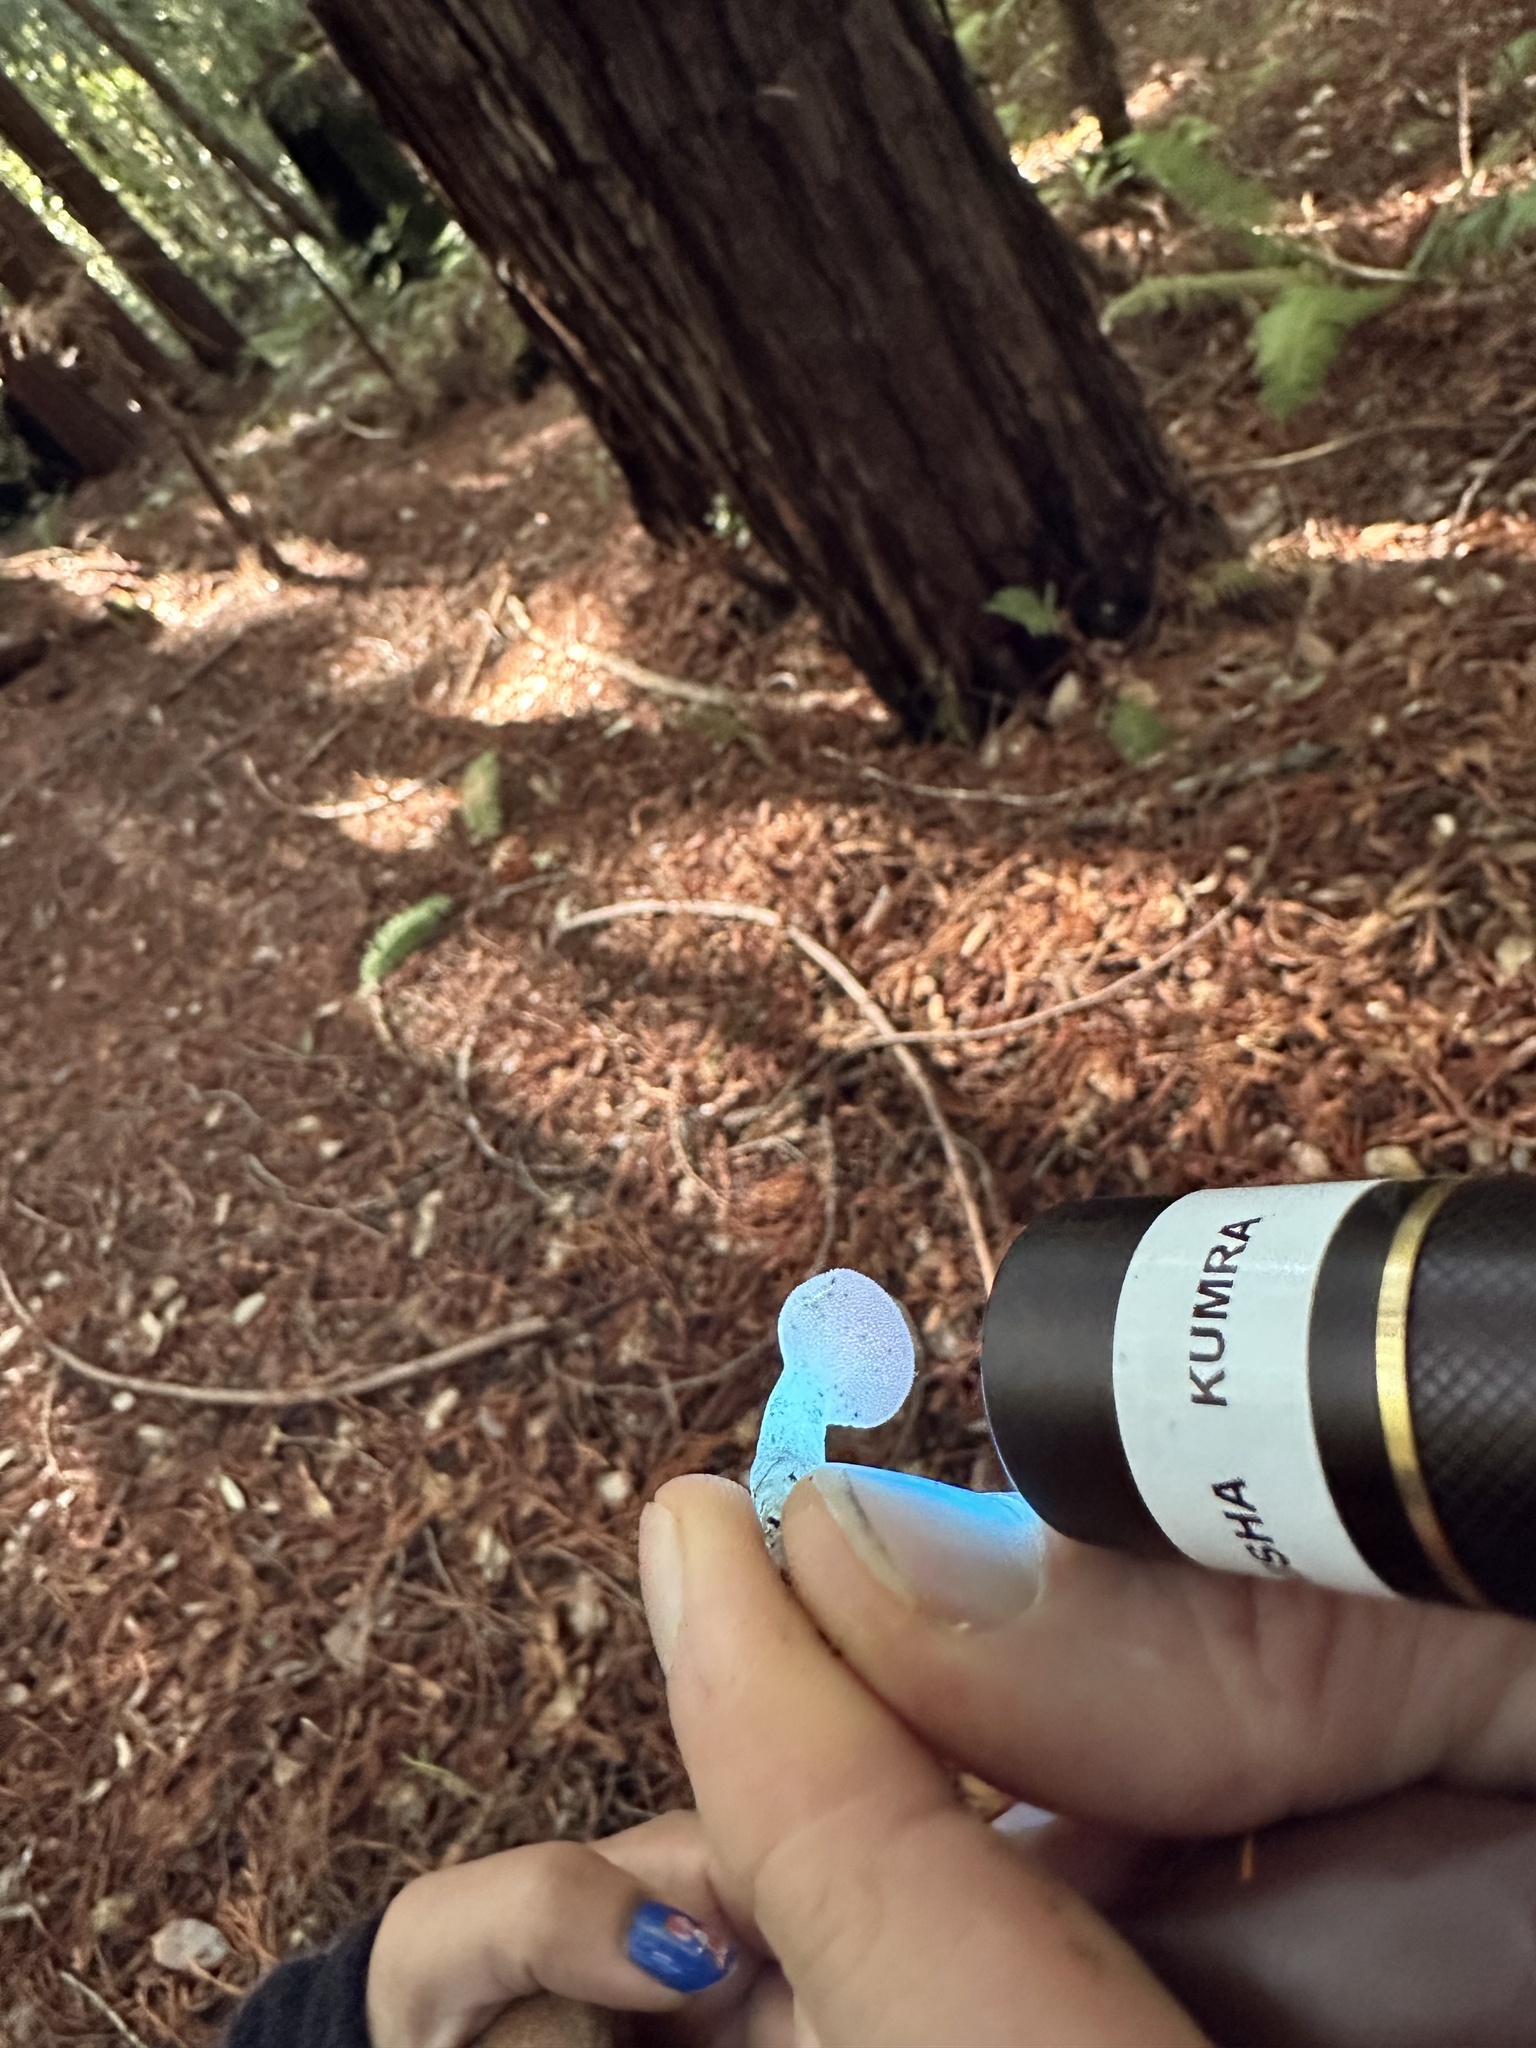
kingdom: Fungi
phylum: Basidiomycota
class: Agaricomycetes
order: Auriculariales
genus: Pseudohydnum
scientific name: Pseudohydnum gelatinosum
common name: Jelly tongue
